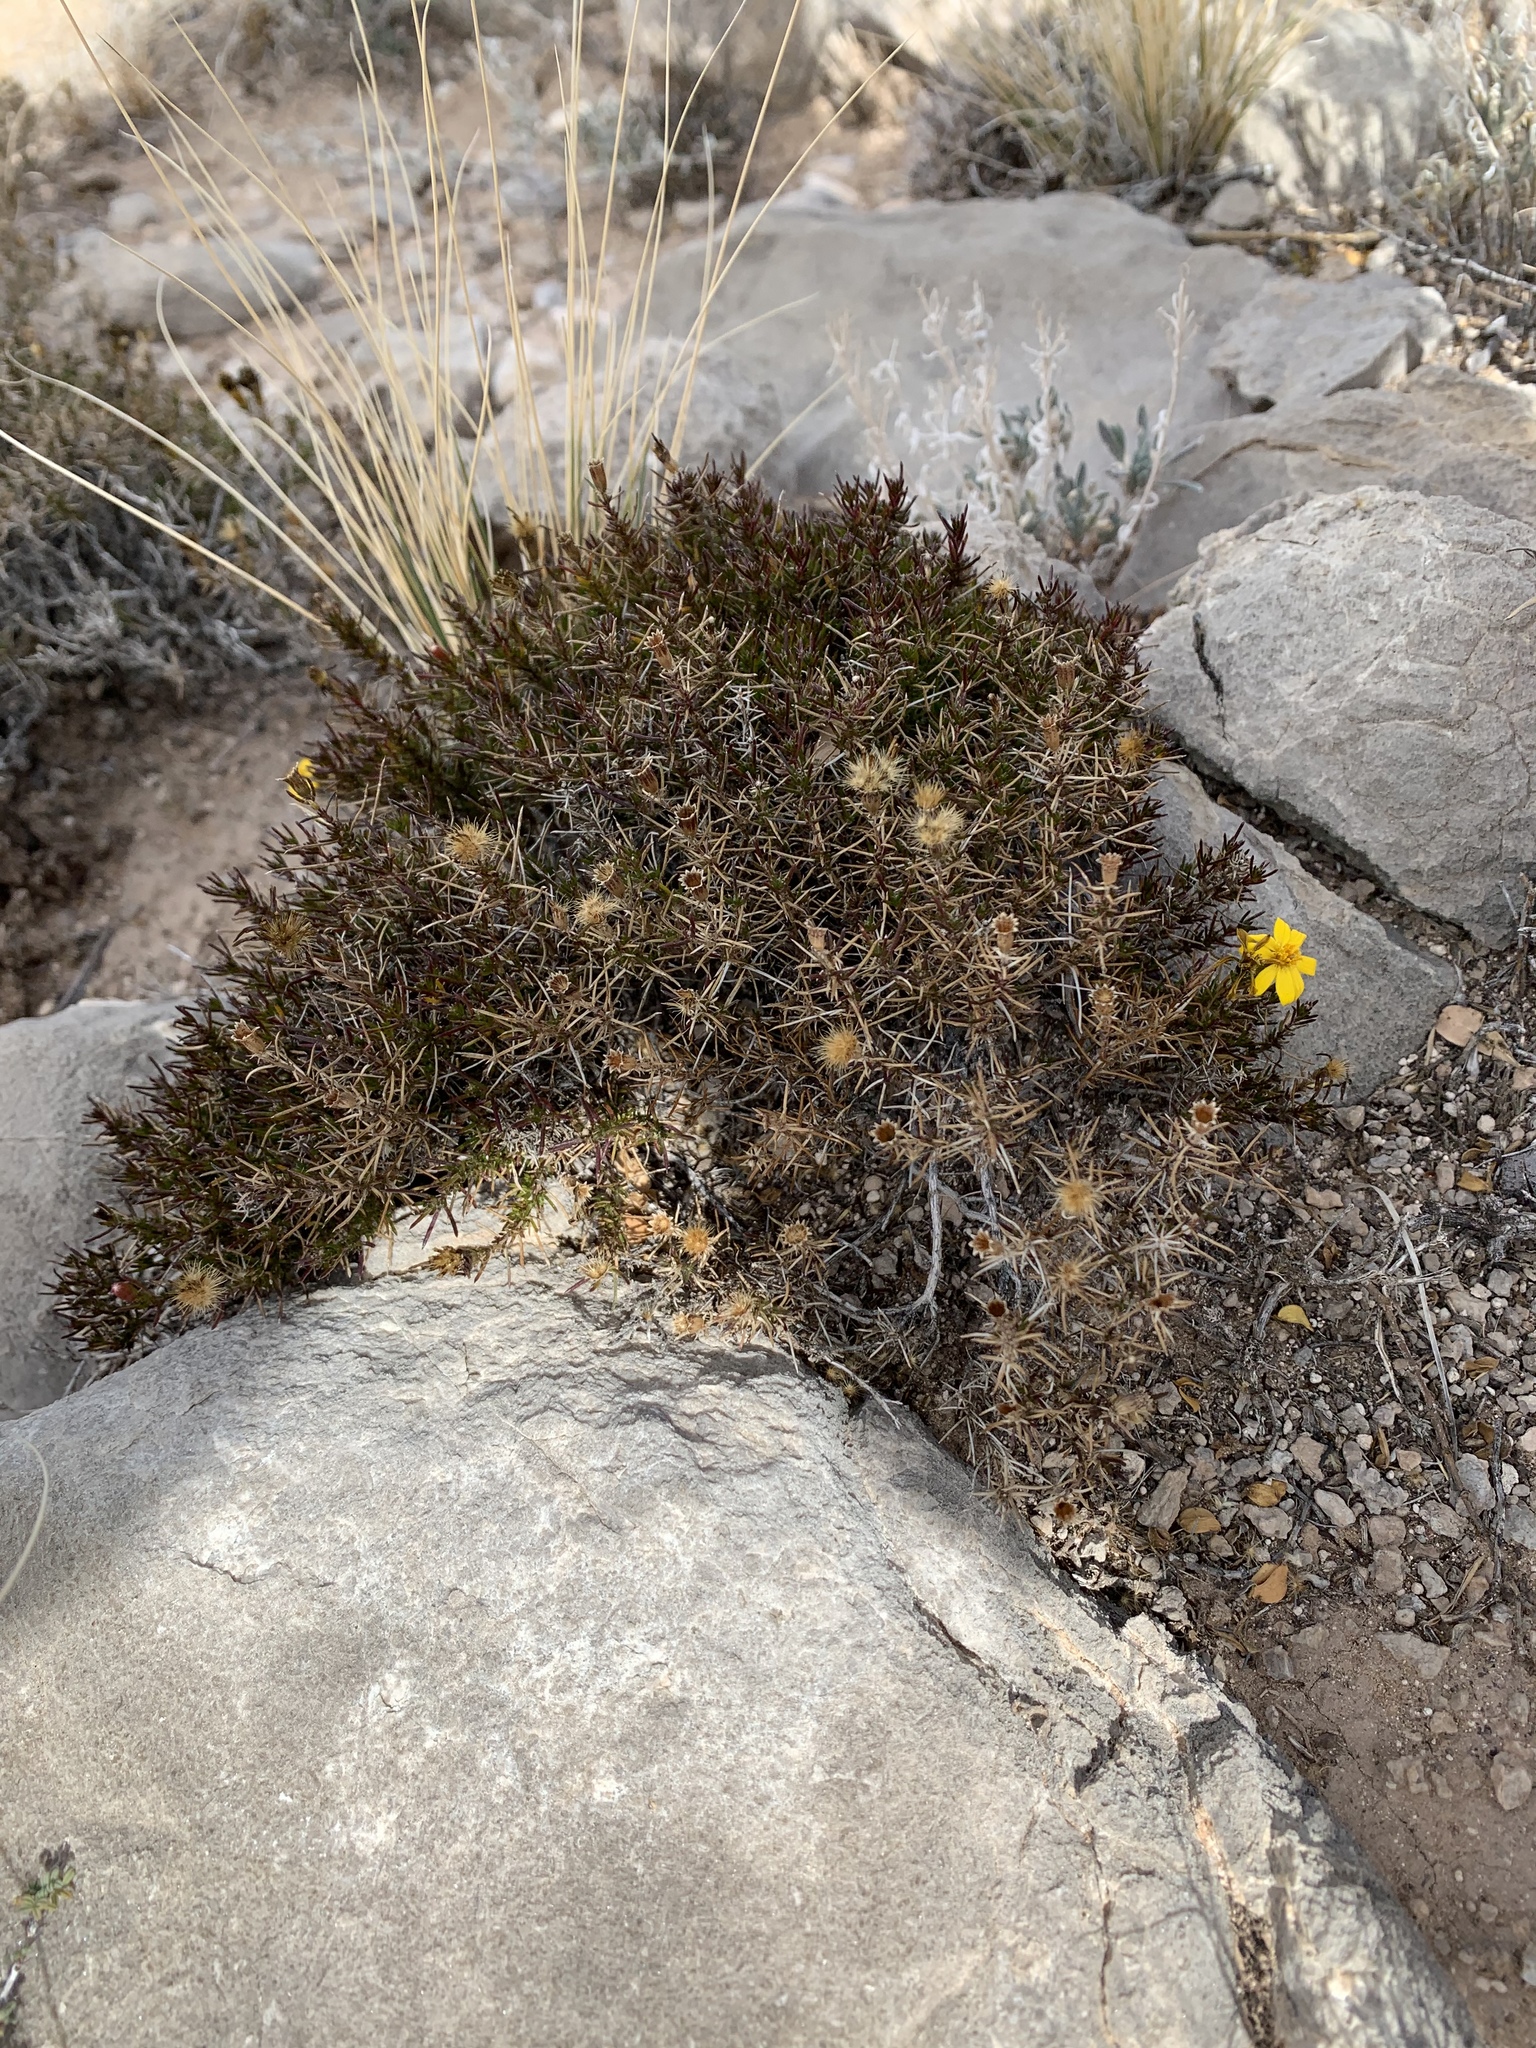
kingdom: Plantae
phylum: Tracheophyta
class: Magnoliopsida
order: Asterales
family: Asteraceae
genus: Thymophylla
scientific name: Thymophylla acerosa
